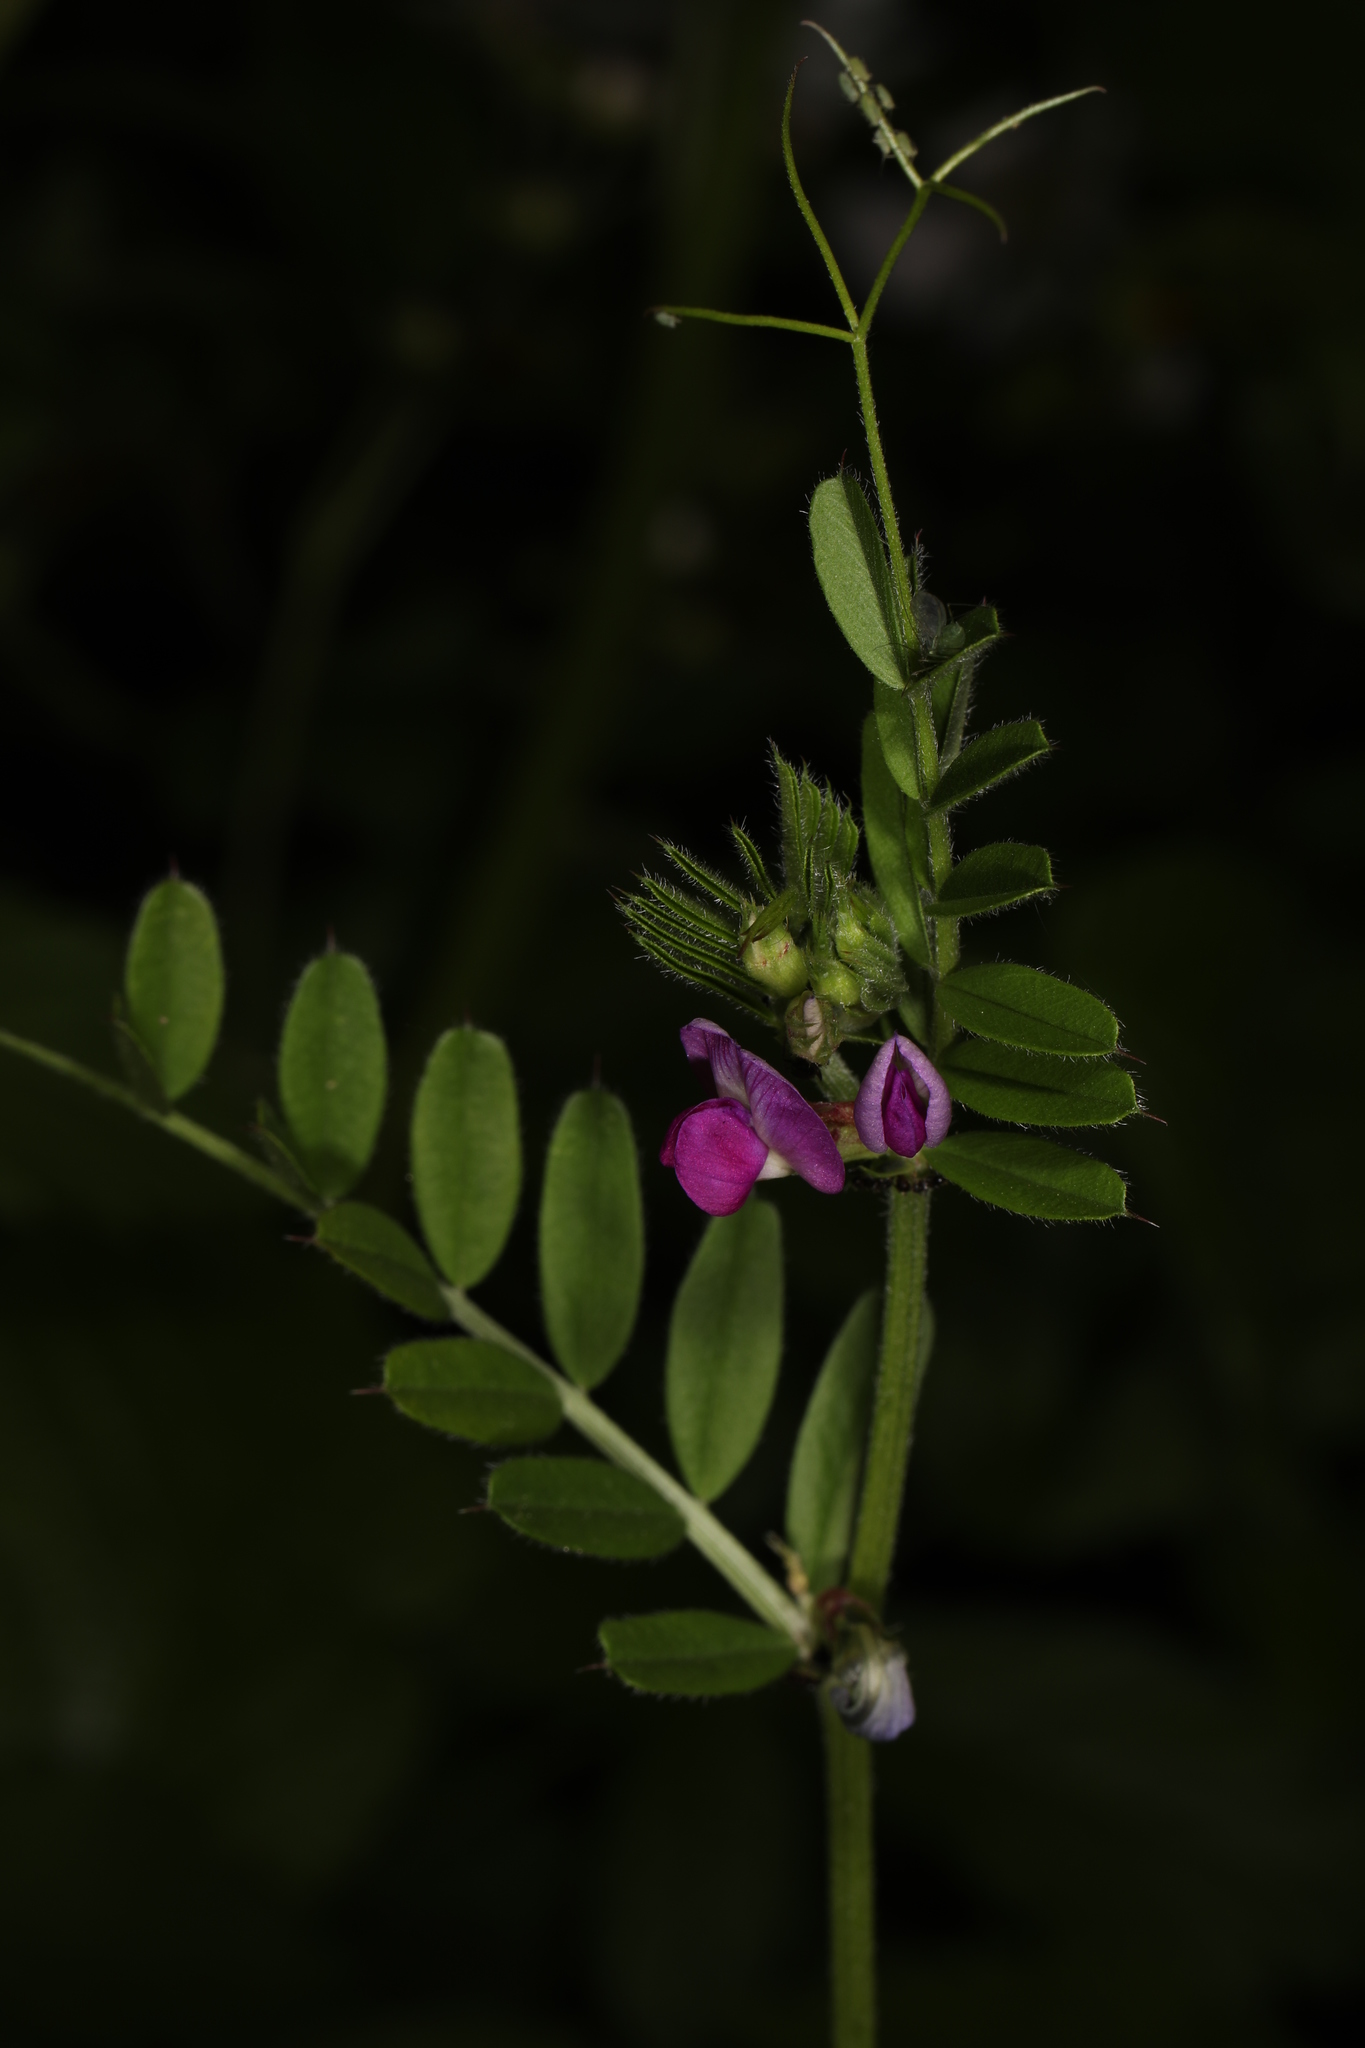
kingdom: Plantae
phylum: Tracheophyta
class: Magnoliopsida
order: Fabales
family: Fabaceae
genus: Vicia
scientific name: Vicia sativa
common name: Garden vetch
